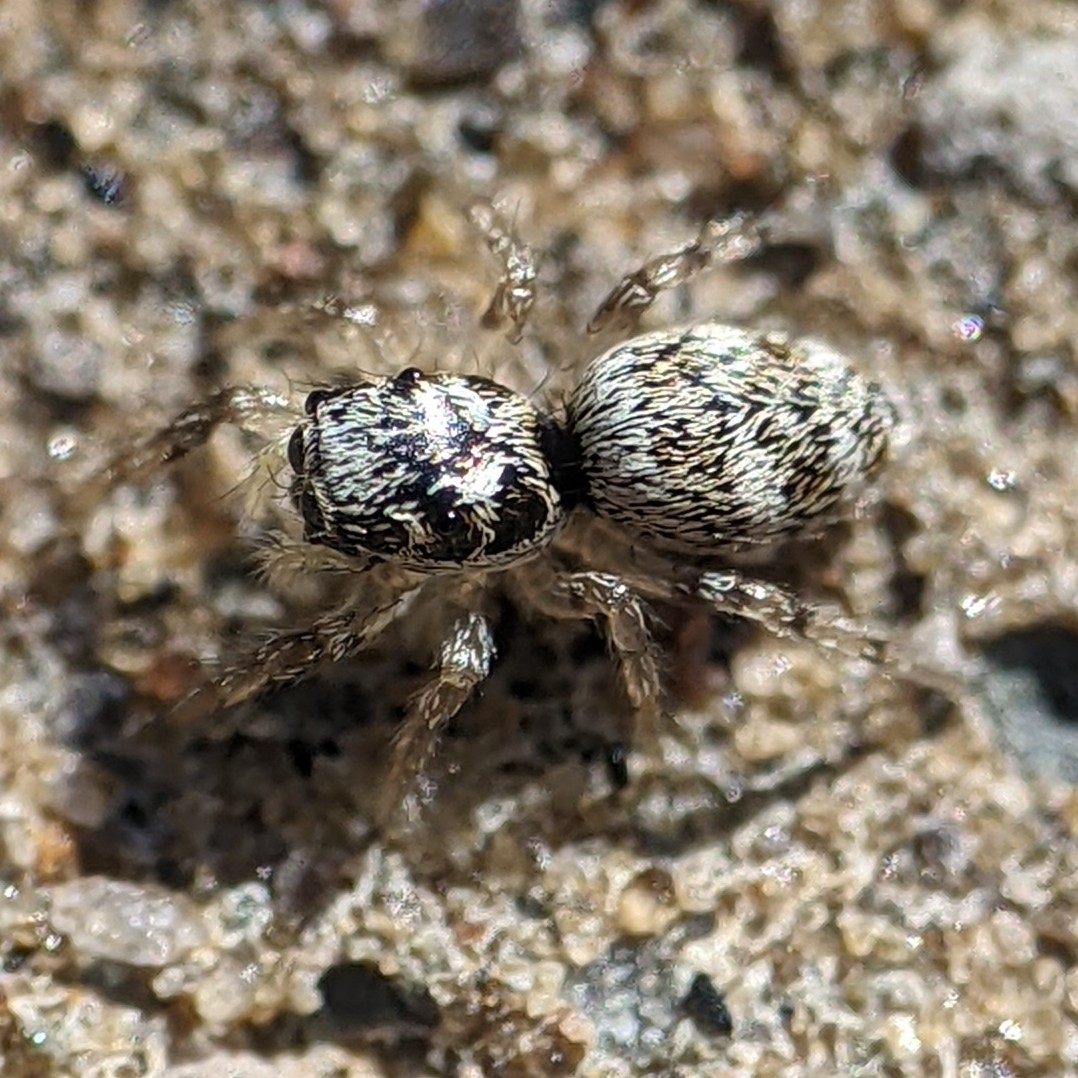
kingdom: Animalia
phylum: Arthropoda
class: Arachnida
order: Araneae
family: Salticidae
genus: Salticus
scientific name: Salticus scenicus
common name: Zebra jumper
